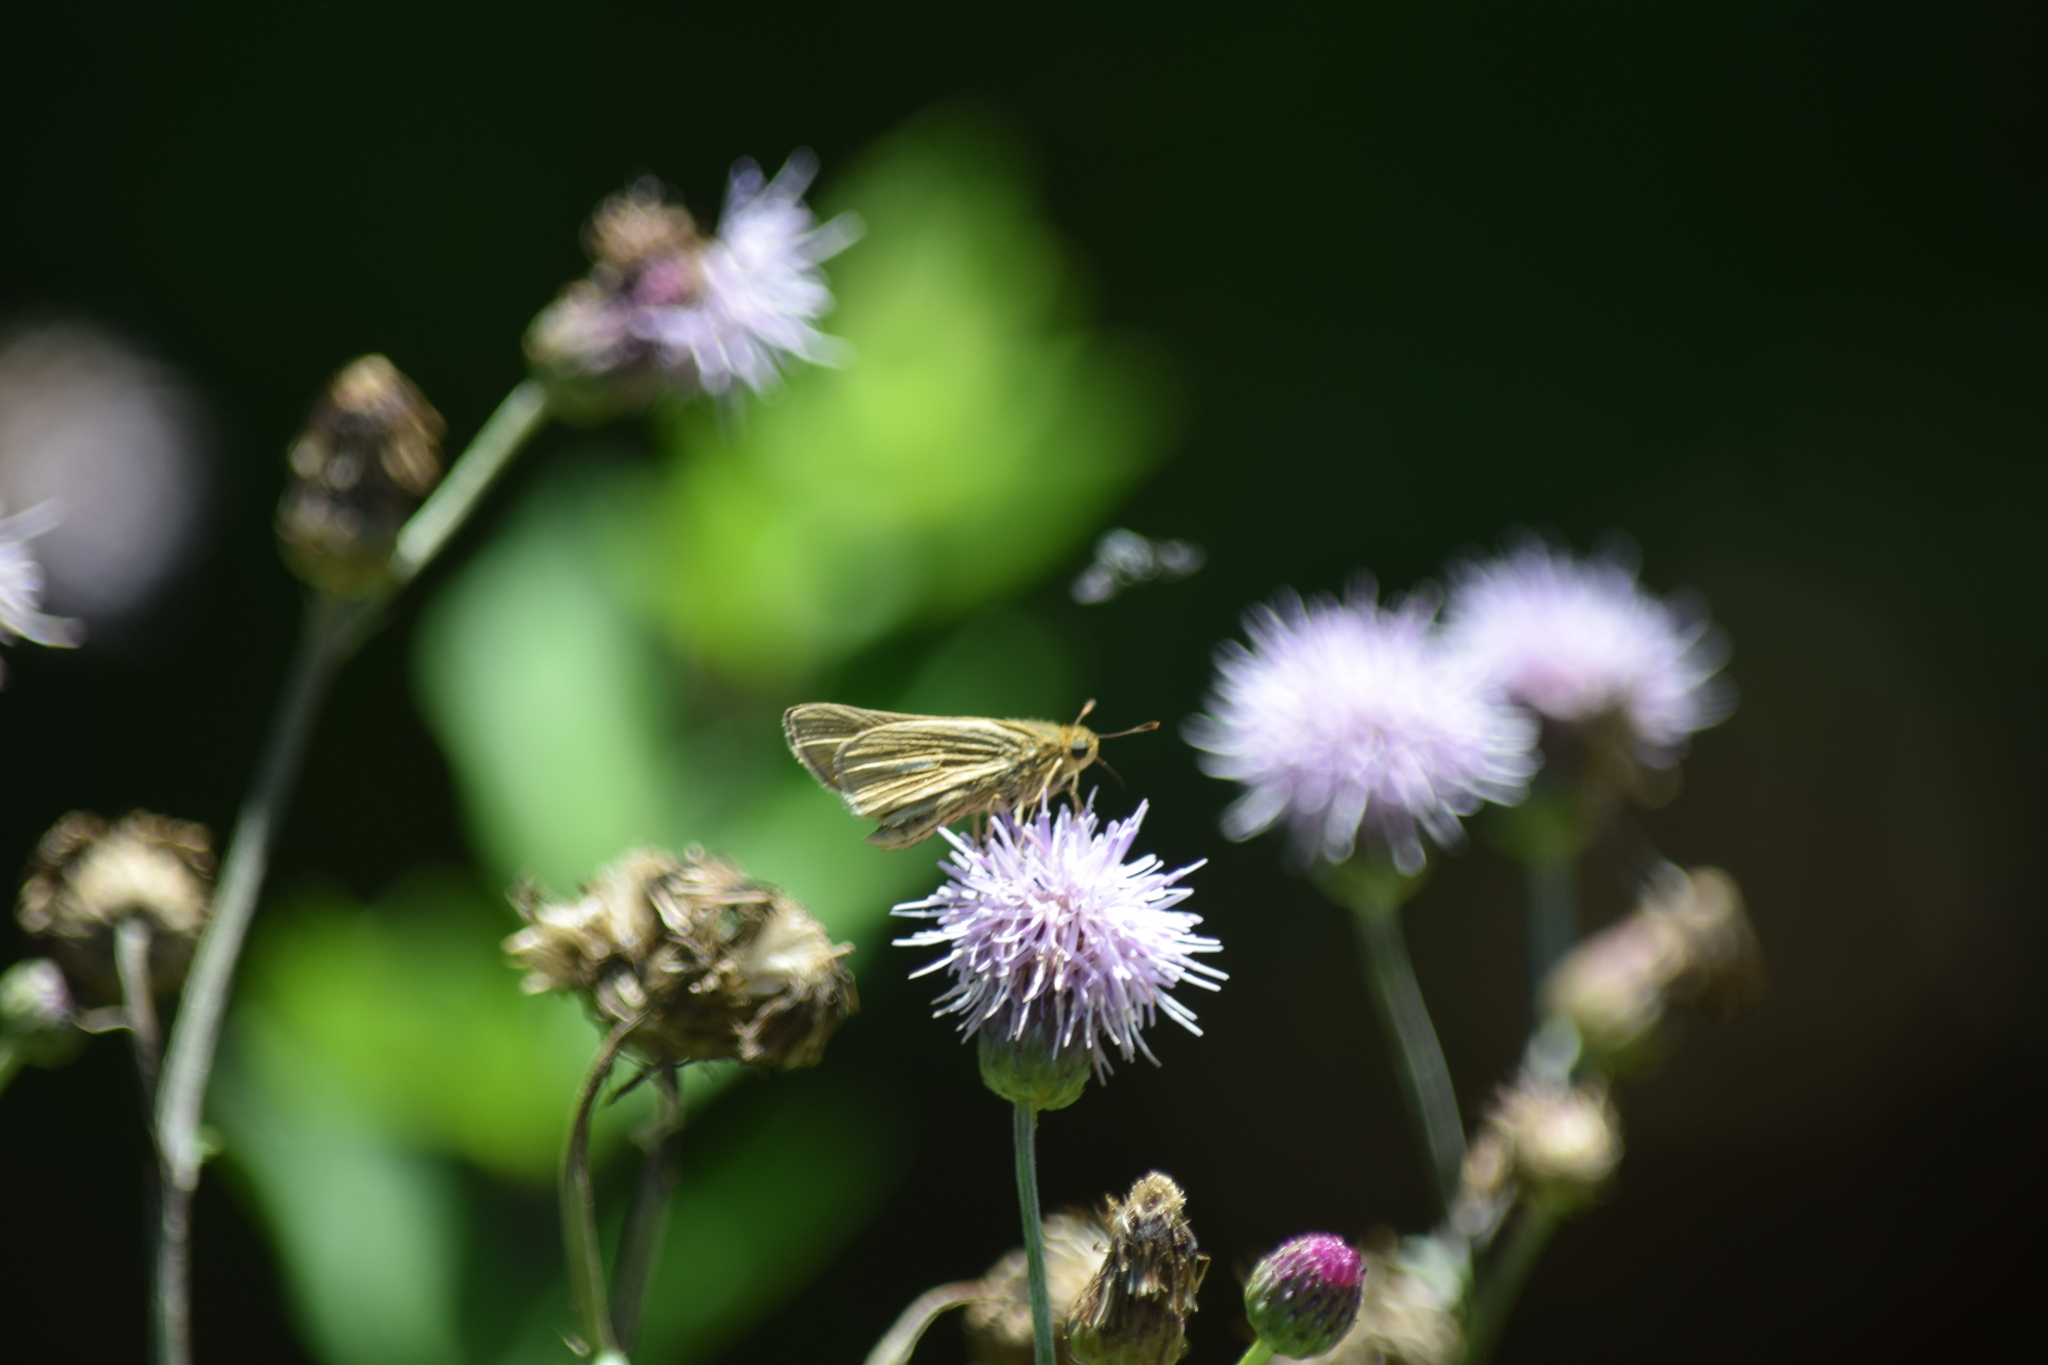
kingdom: Animalia
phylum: Arthropoda
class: Insecta
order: Lepidoptera
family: Hesperiidae
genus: Panoquina
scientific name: Panoquina panoquin
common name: Salt marsh skipper
